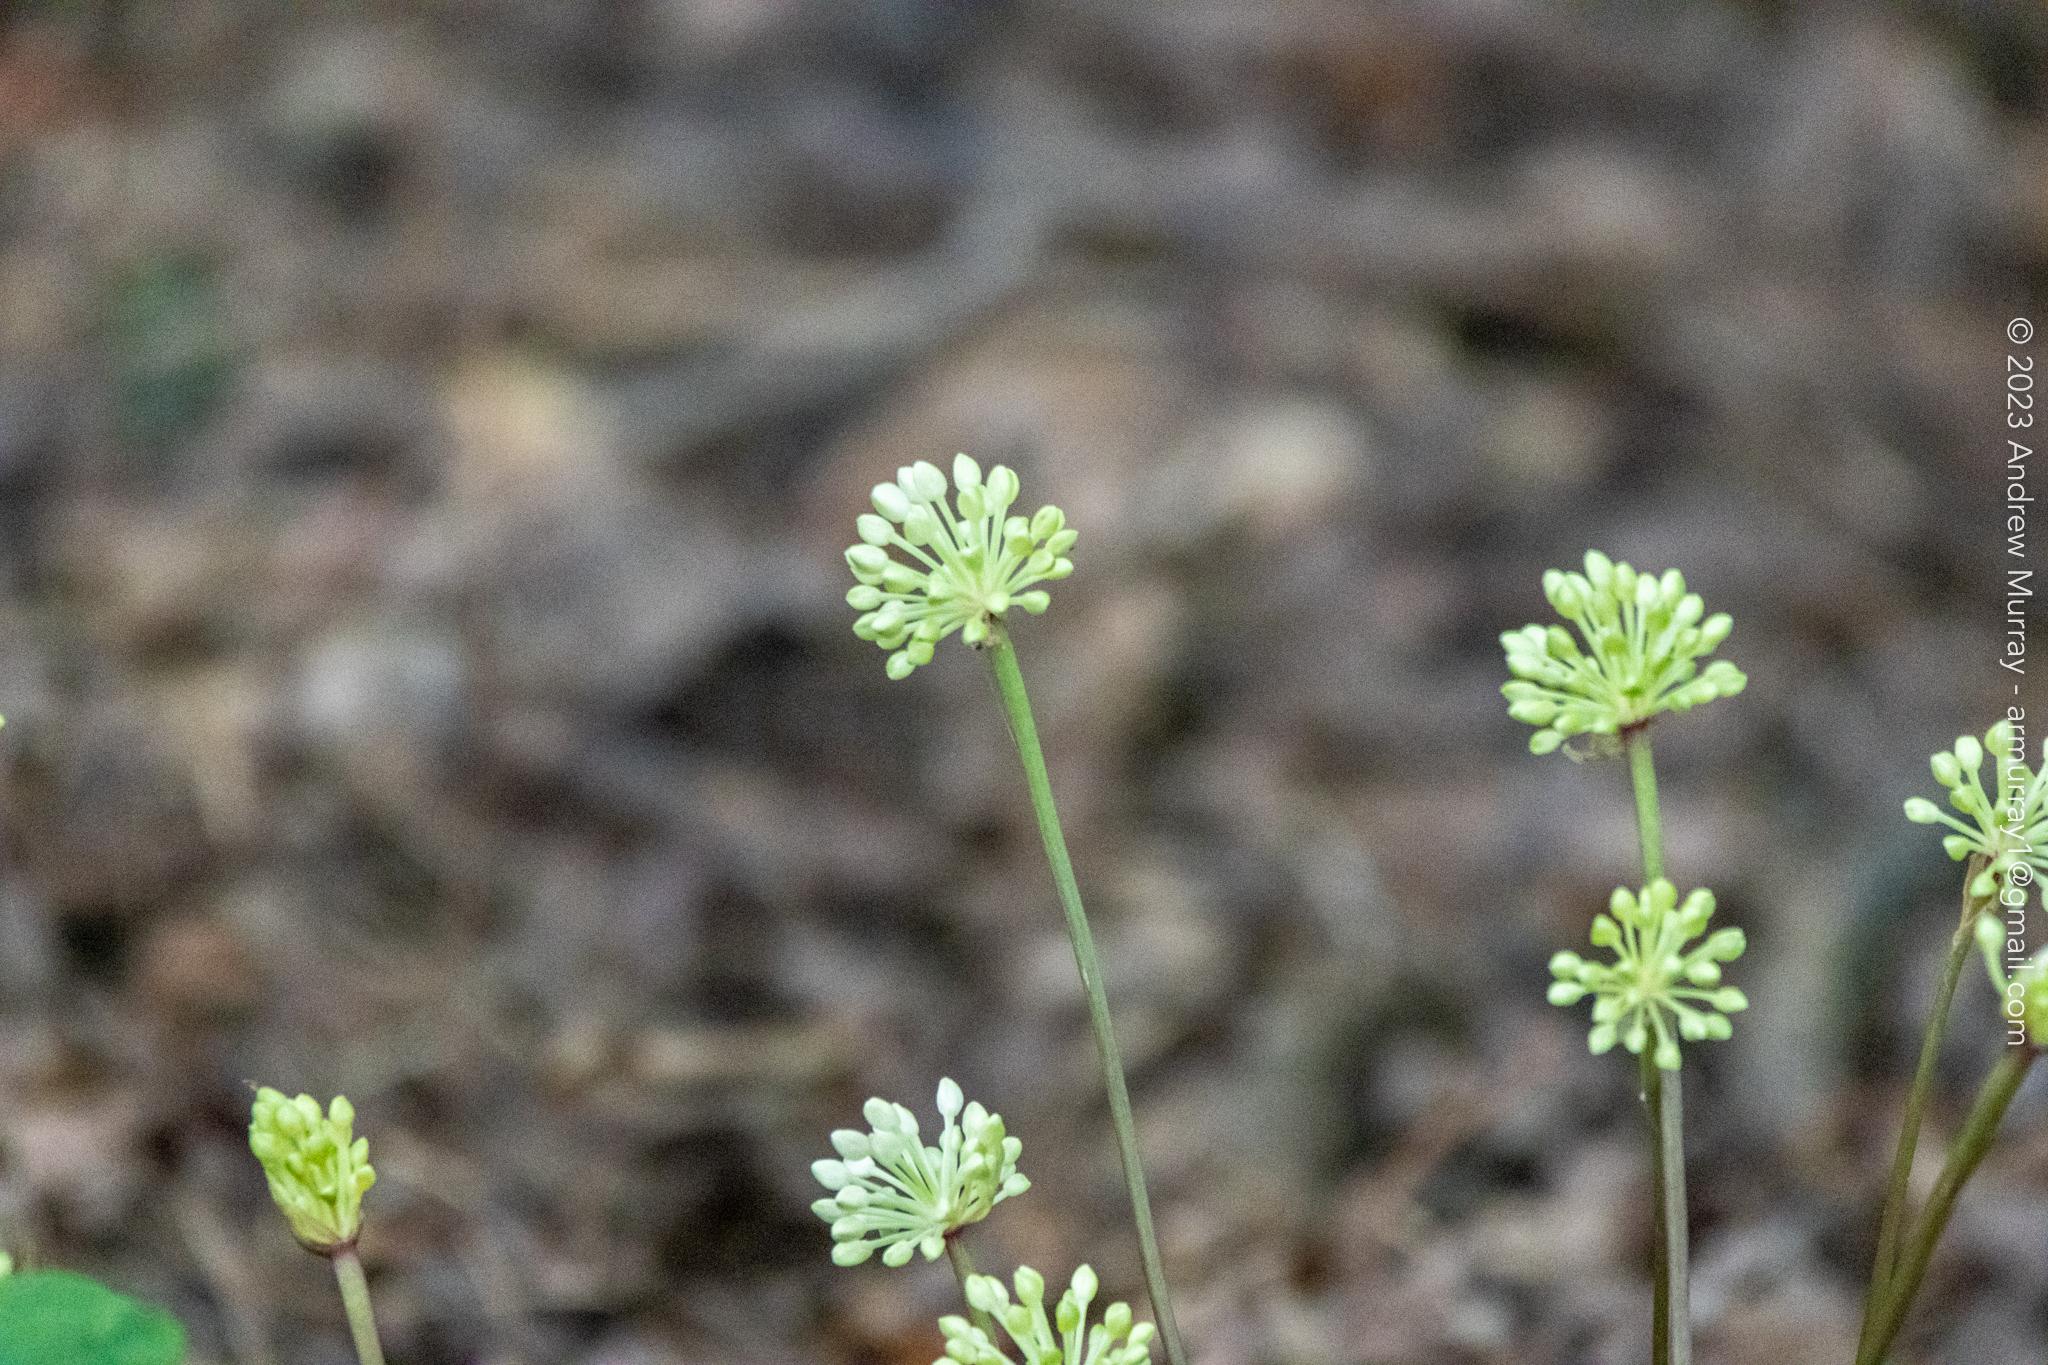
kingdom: Plantae
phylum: Tracheophyta
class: Liliopsida
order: Asparagales
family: Amaryllidaceae
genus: Allium
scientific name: Allium tricoccum
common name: Ramp
